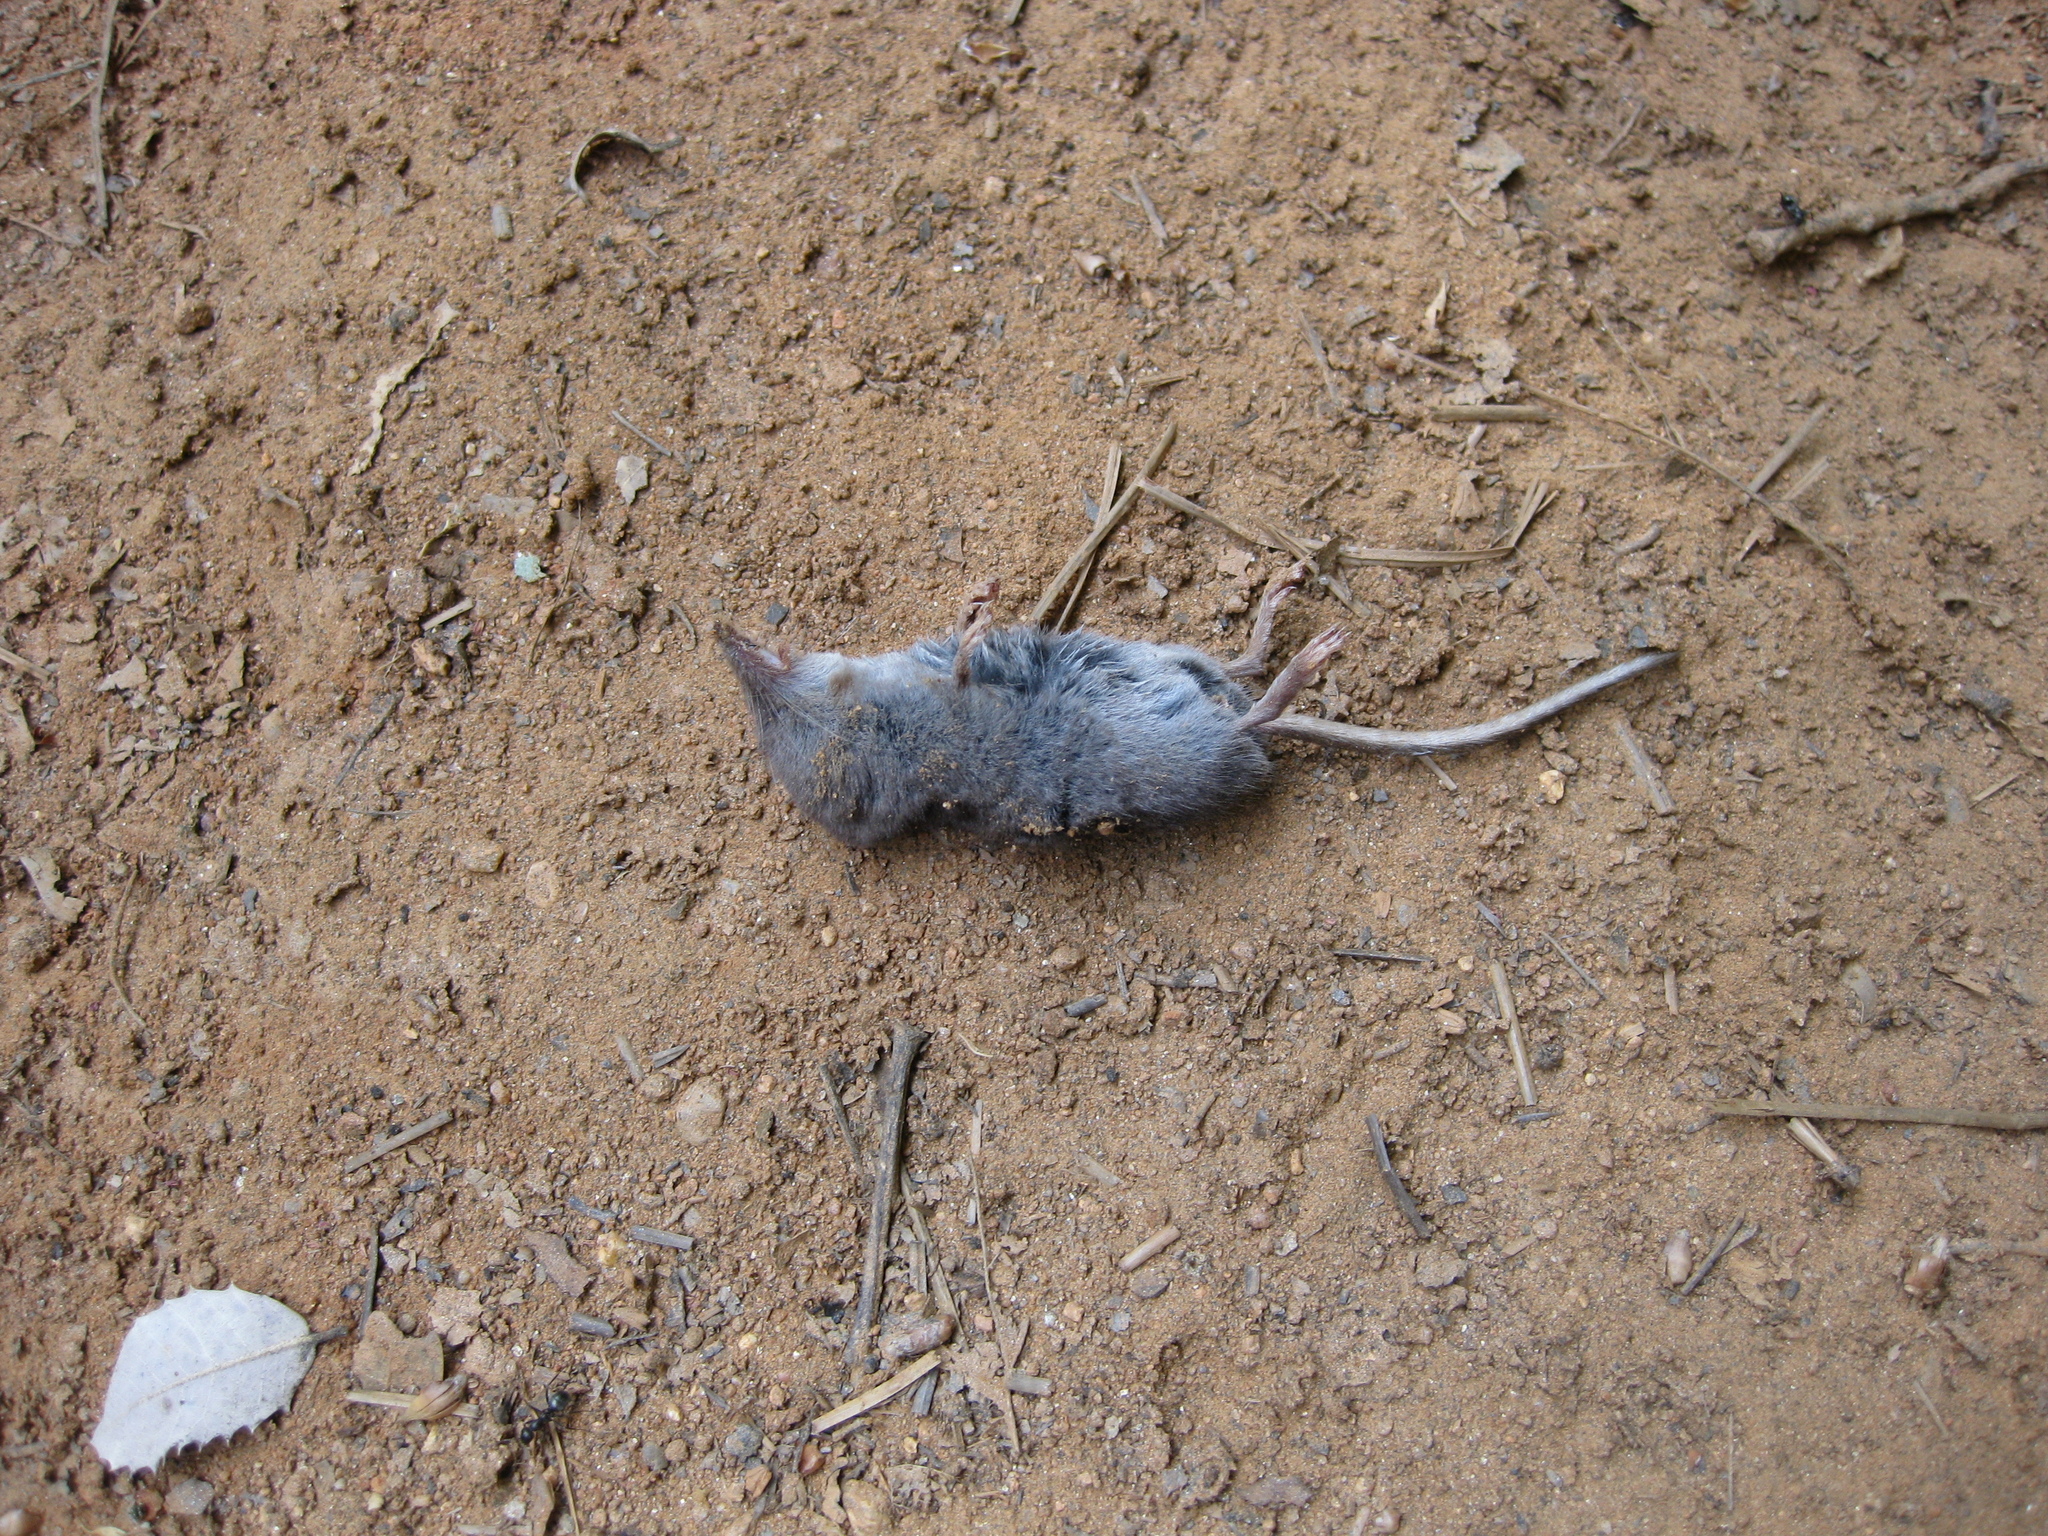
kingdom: Animalia
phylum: Chordata
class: Mammalia
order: Soricomorpha
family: Soricidae
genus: Sorex
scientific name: Sorex ornatus
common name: Ornate shrew
